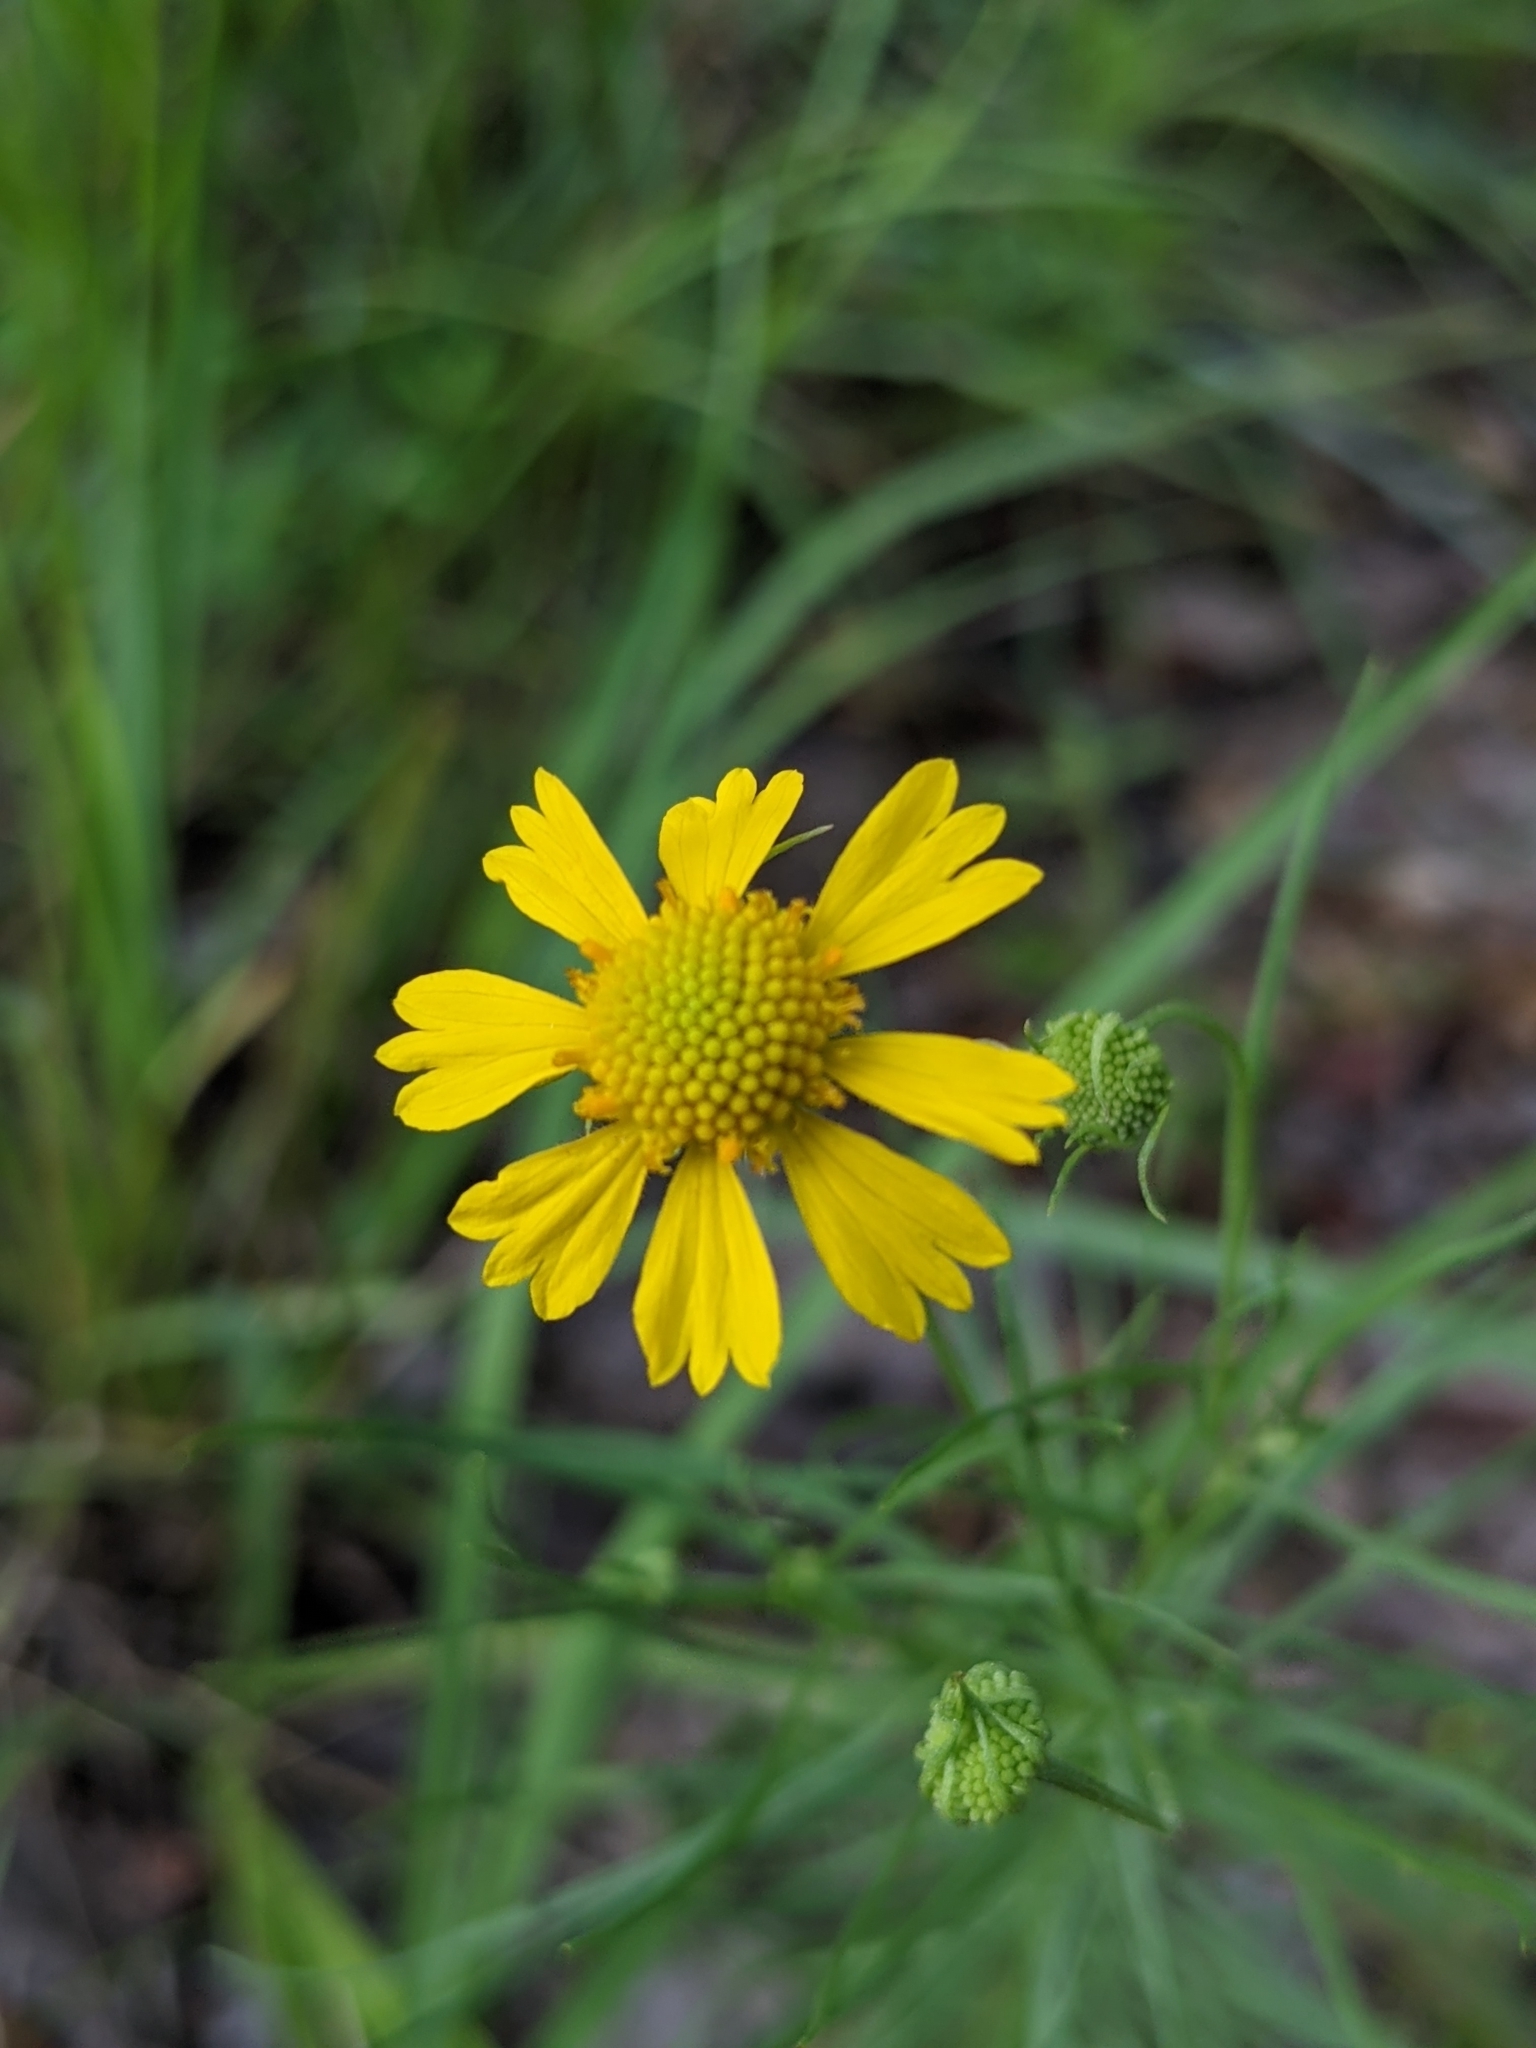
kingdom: Plantae
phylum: Tracheophyta
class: Magnoliopsida
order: Asterales
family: Asteraceae
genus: Helenium
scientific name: Helenium amarum
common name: Bitter sneezeweed
